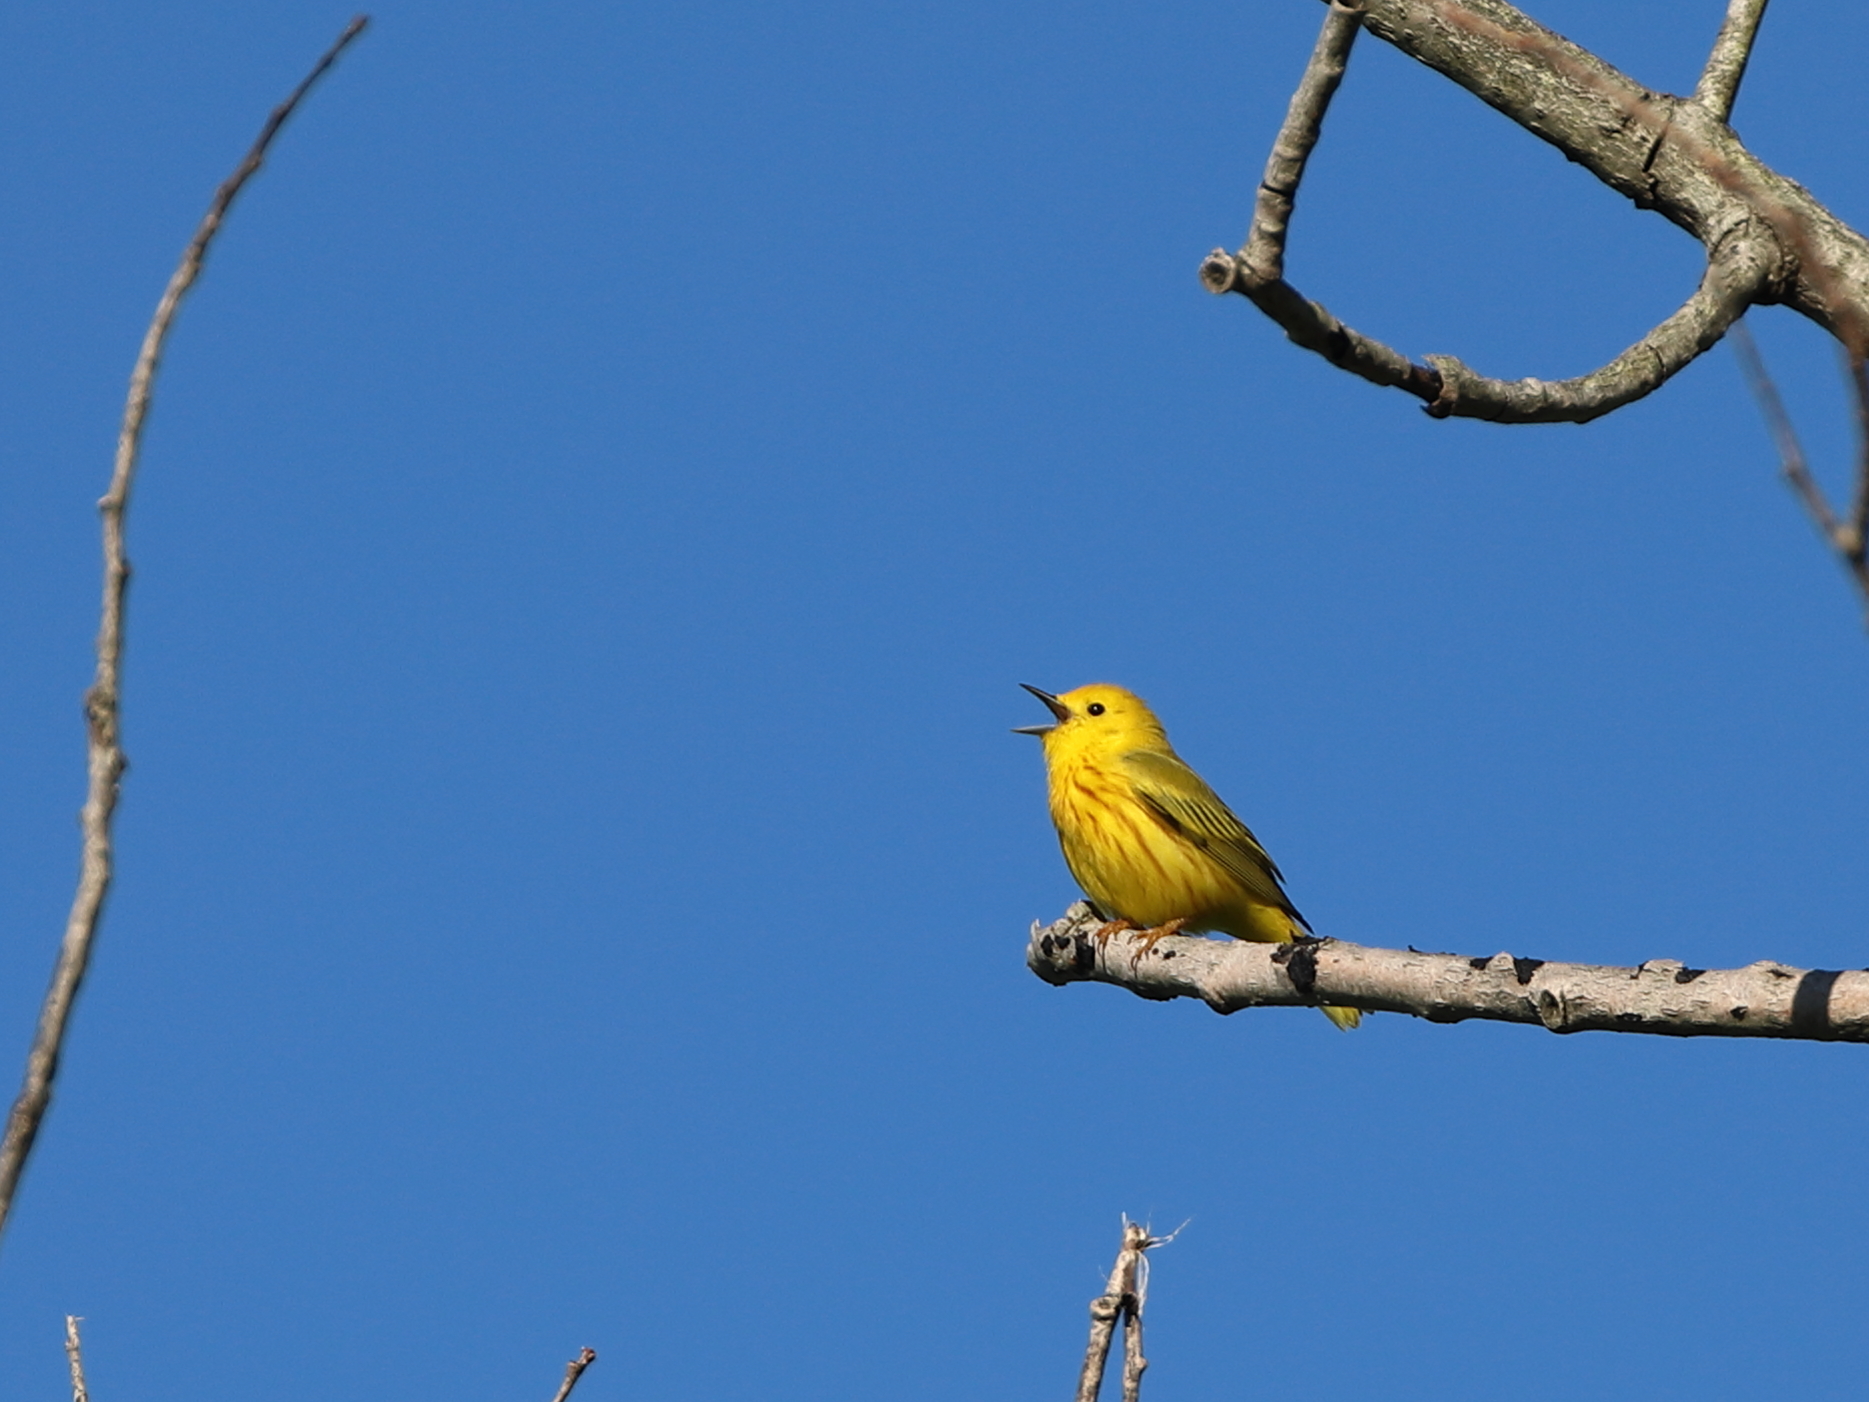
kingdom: Animalia
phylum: Chordata
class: Aves
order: Passeriformes
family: Parulidae
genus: Setophaga
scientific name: Setophaga petechia
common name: Yellow warbler
